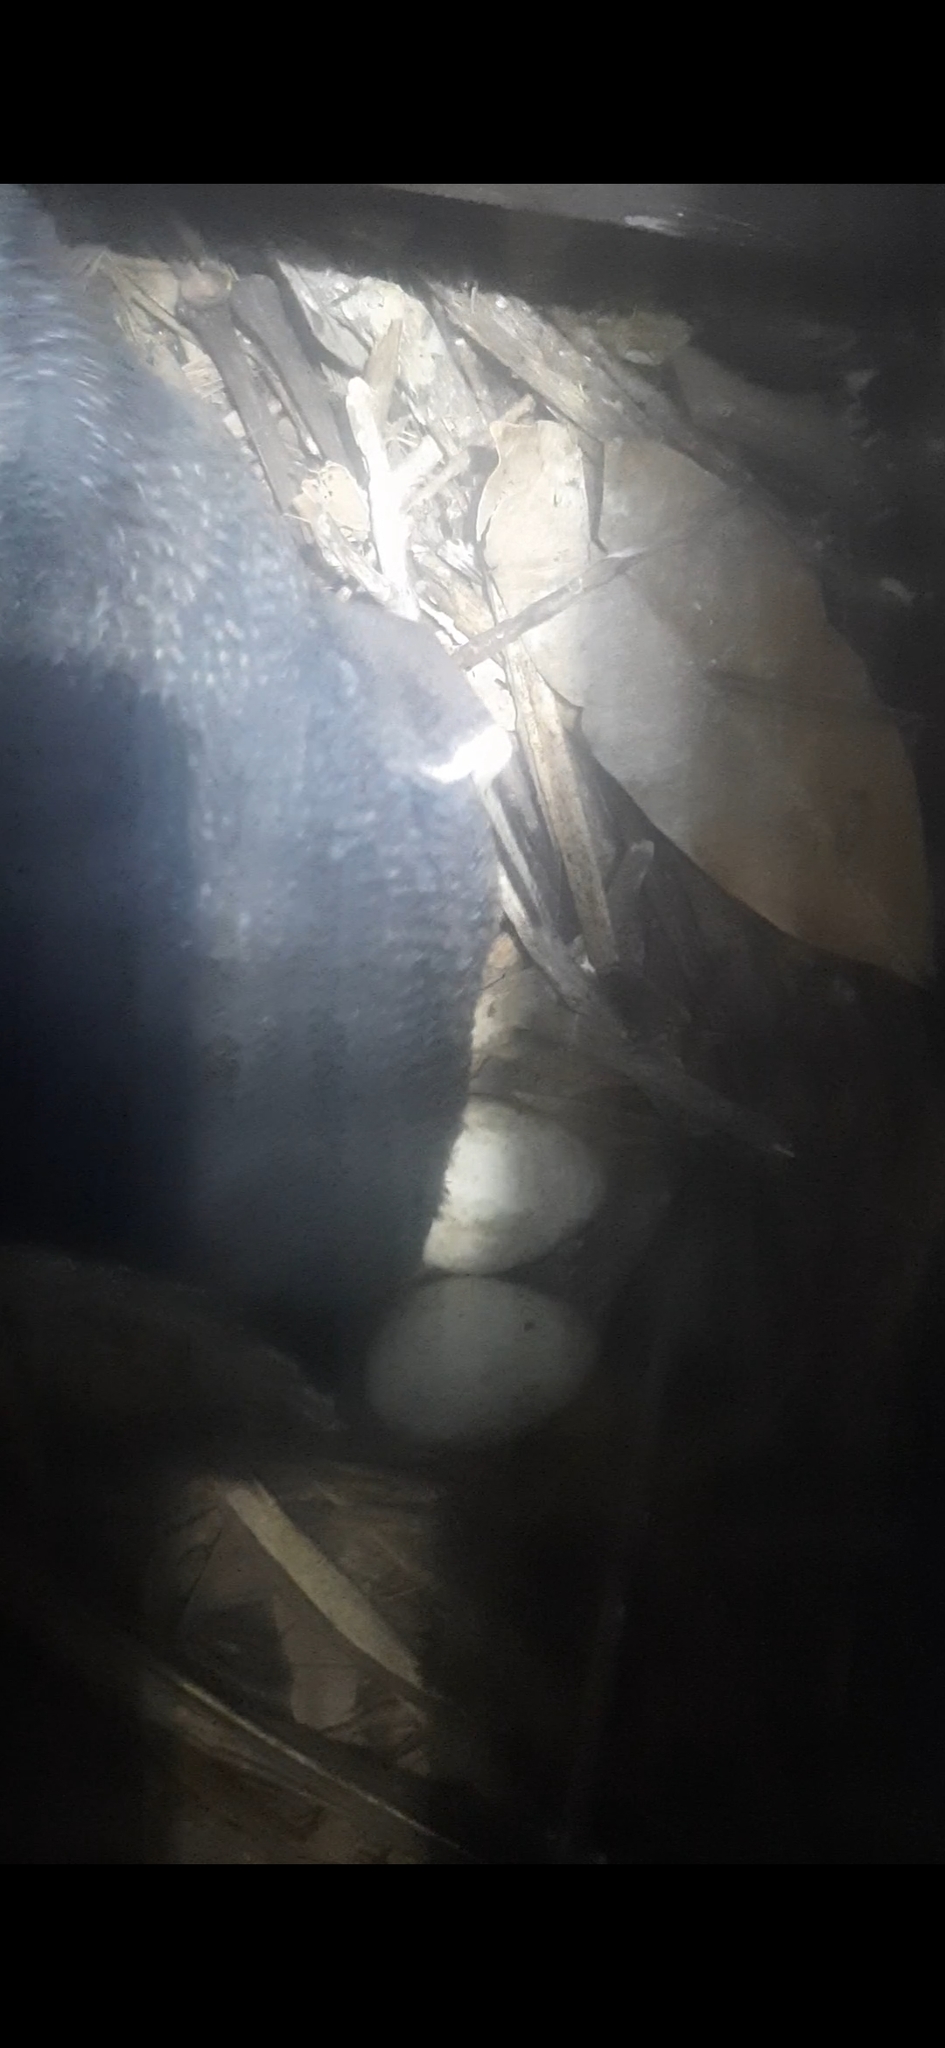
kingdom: Animalia
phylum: Chordata
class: Aves
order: Sphenisciformes
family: Spheniscidae
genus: Eudyptula
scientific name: Eudyptula minor
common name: Little penguin
